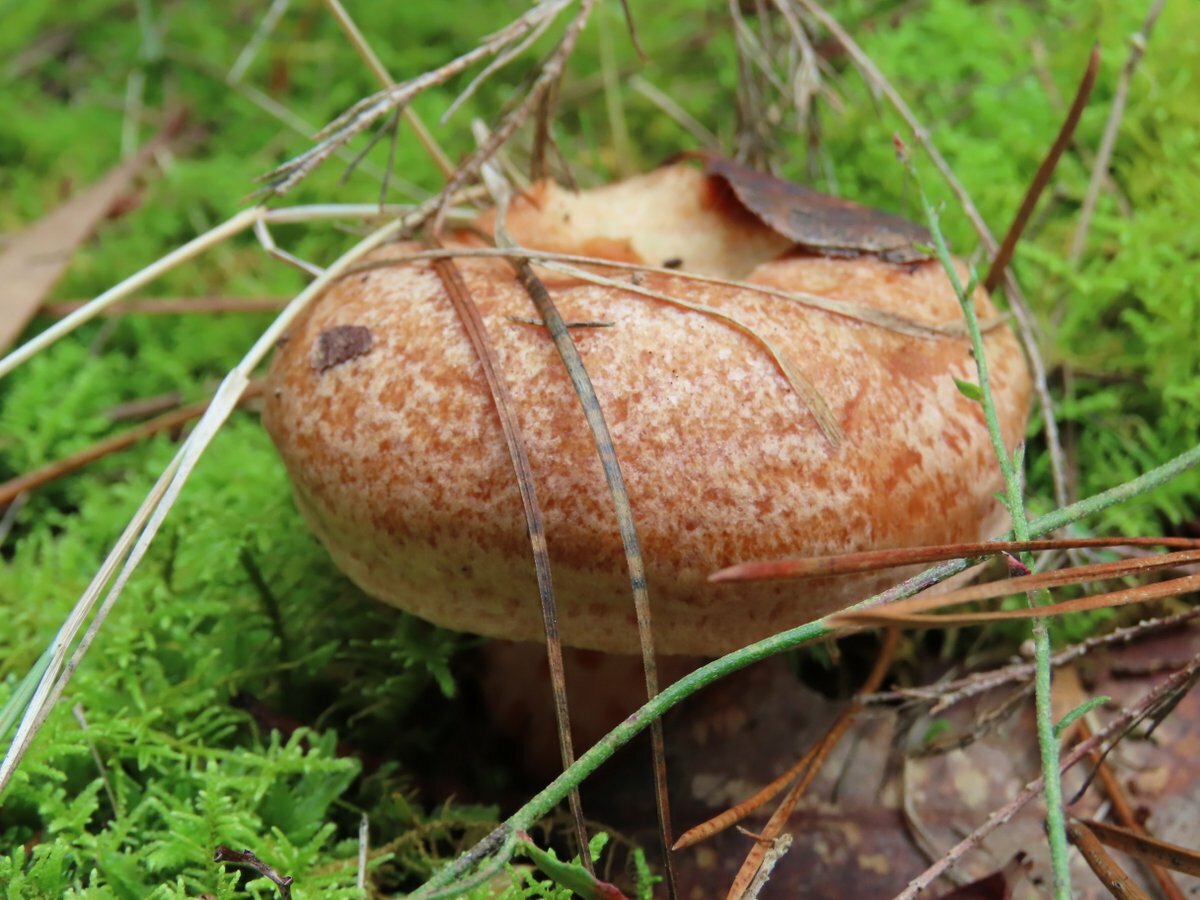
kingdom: Fungi
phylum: Basidiomycota
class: Agaricomycetes
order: Russulales
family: Russulaceae
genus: Lactarius
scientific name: Lactarius deliciosus
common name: Saffron milk-cap
